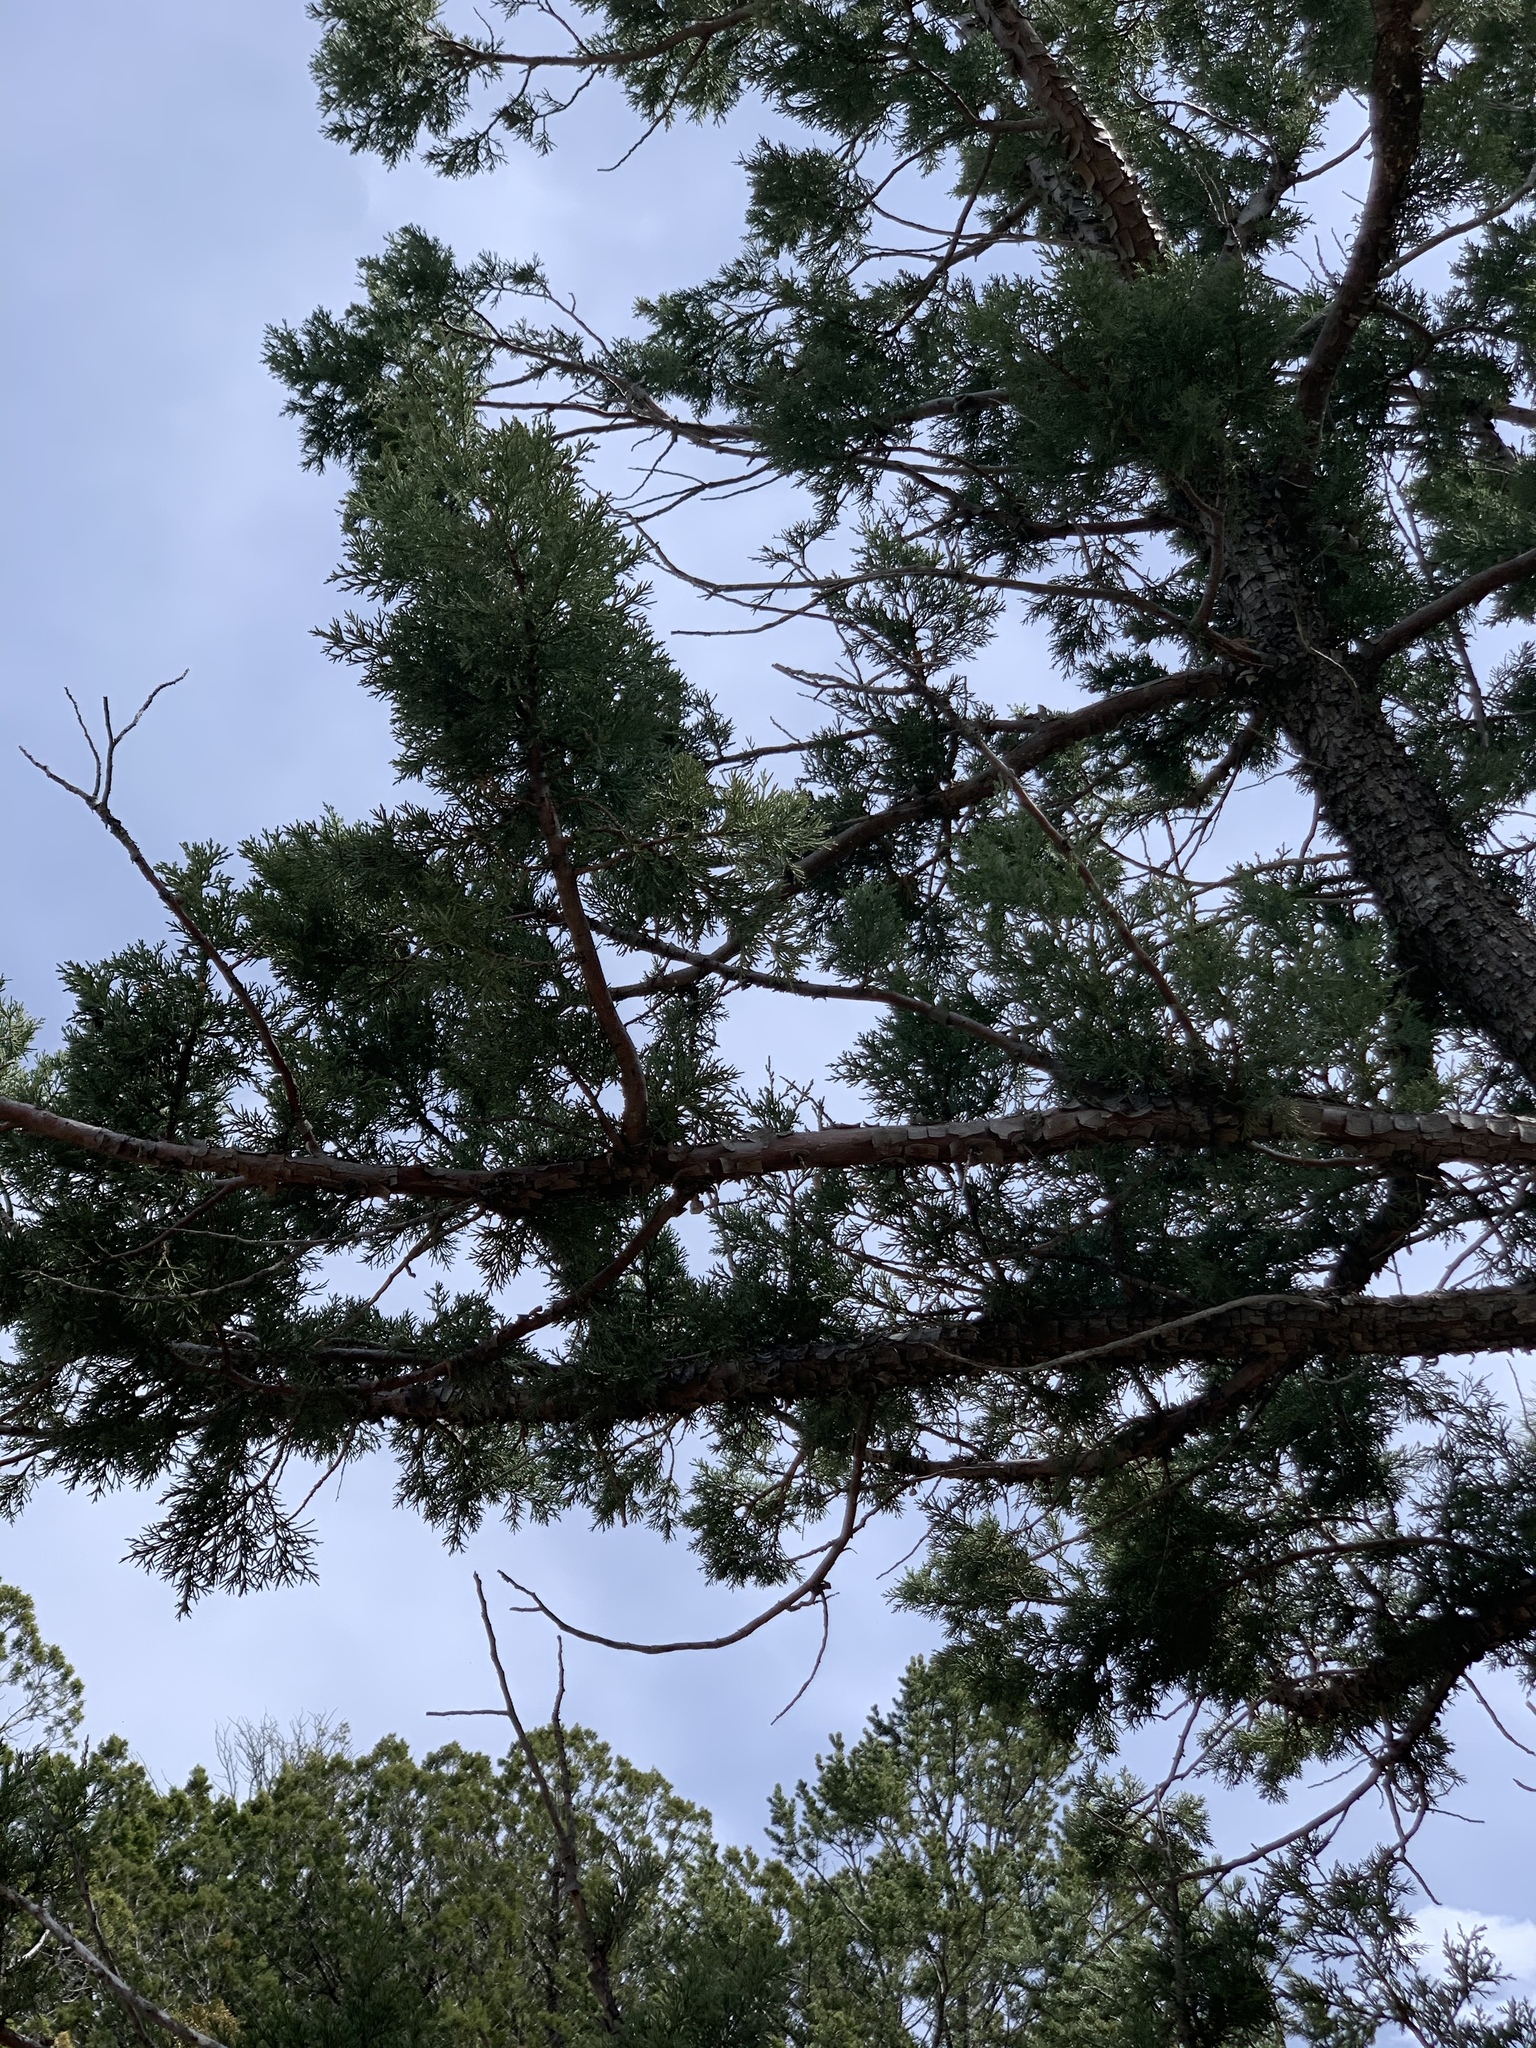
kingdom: Plantae
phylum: Tracheophyta
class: Pinopsida
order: Pinales
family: Cupressaceae
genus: Juniperus
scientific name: Juniperus deppeana
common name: Alligator juniper
